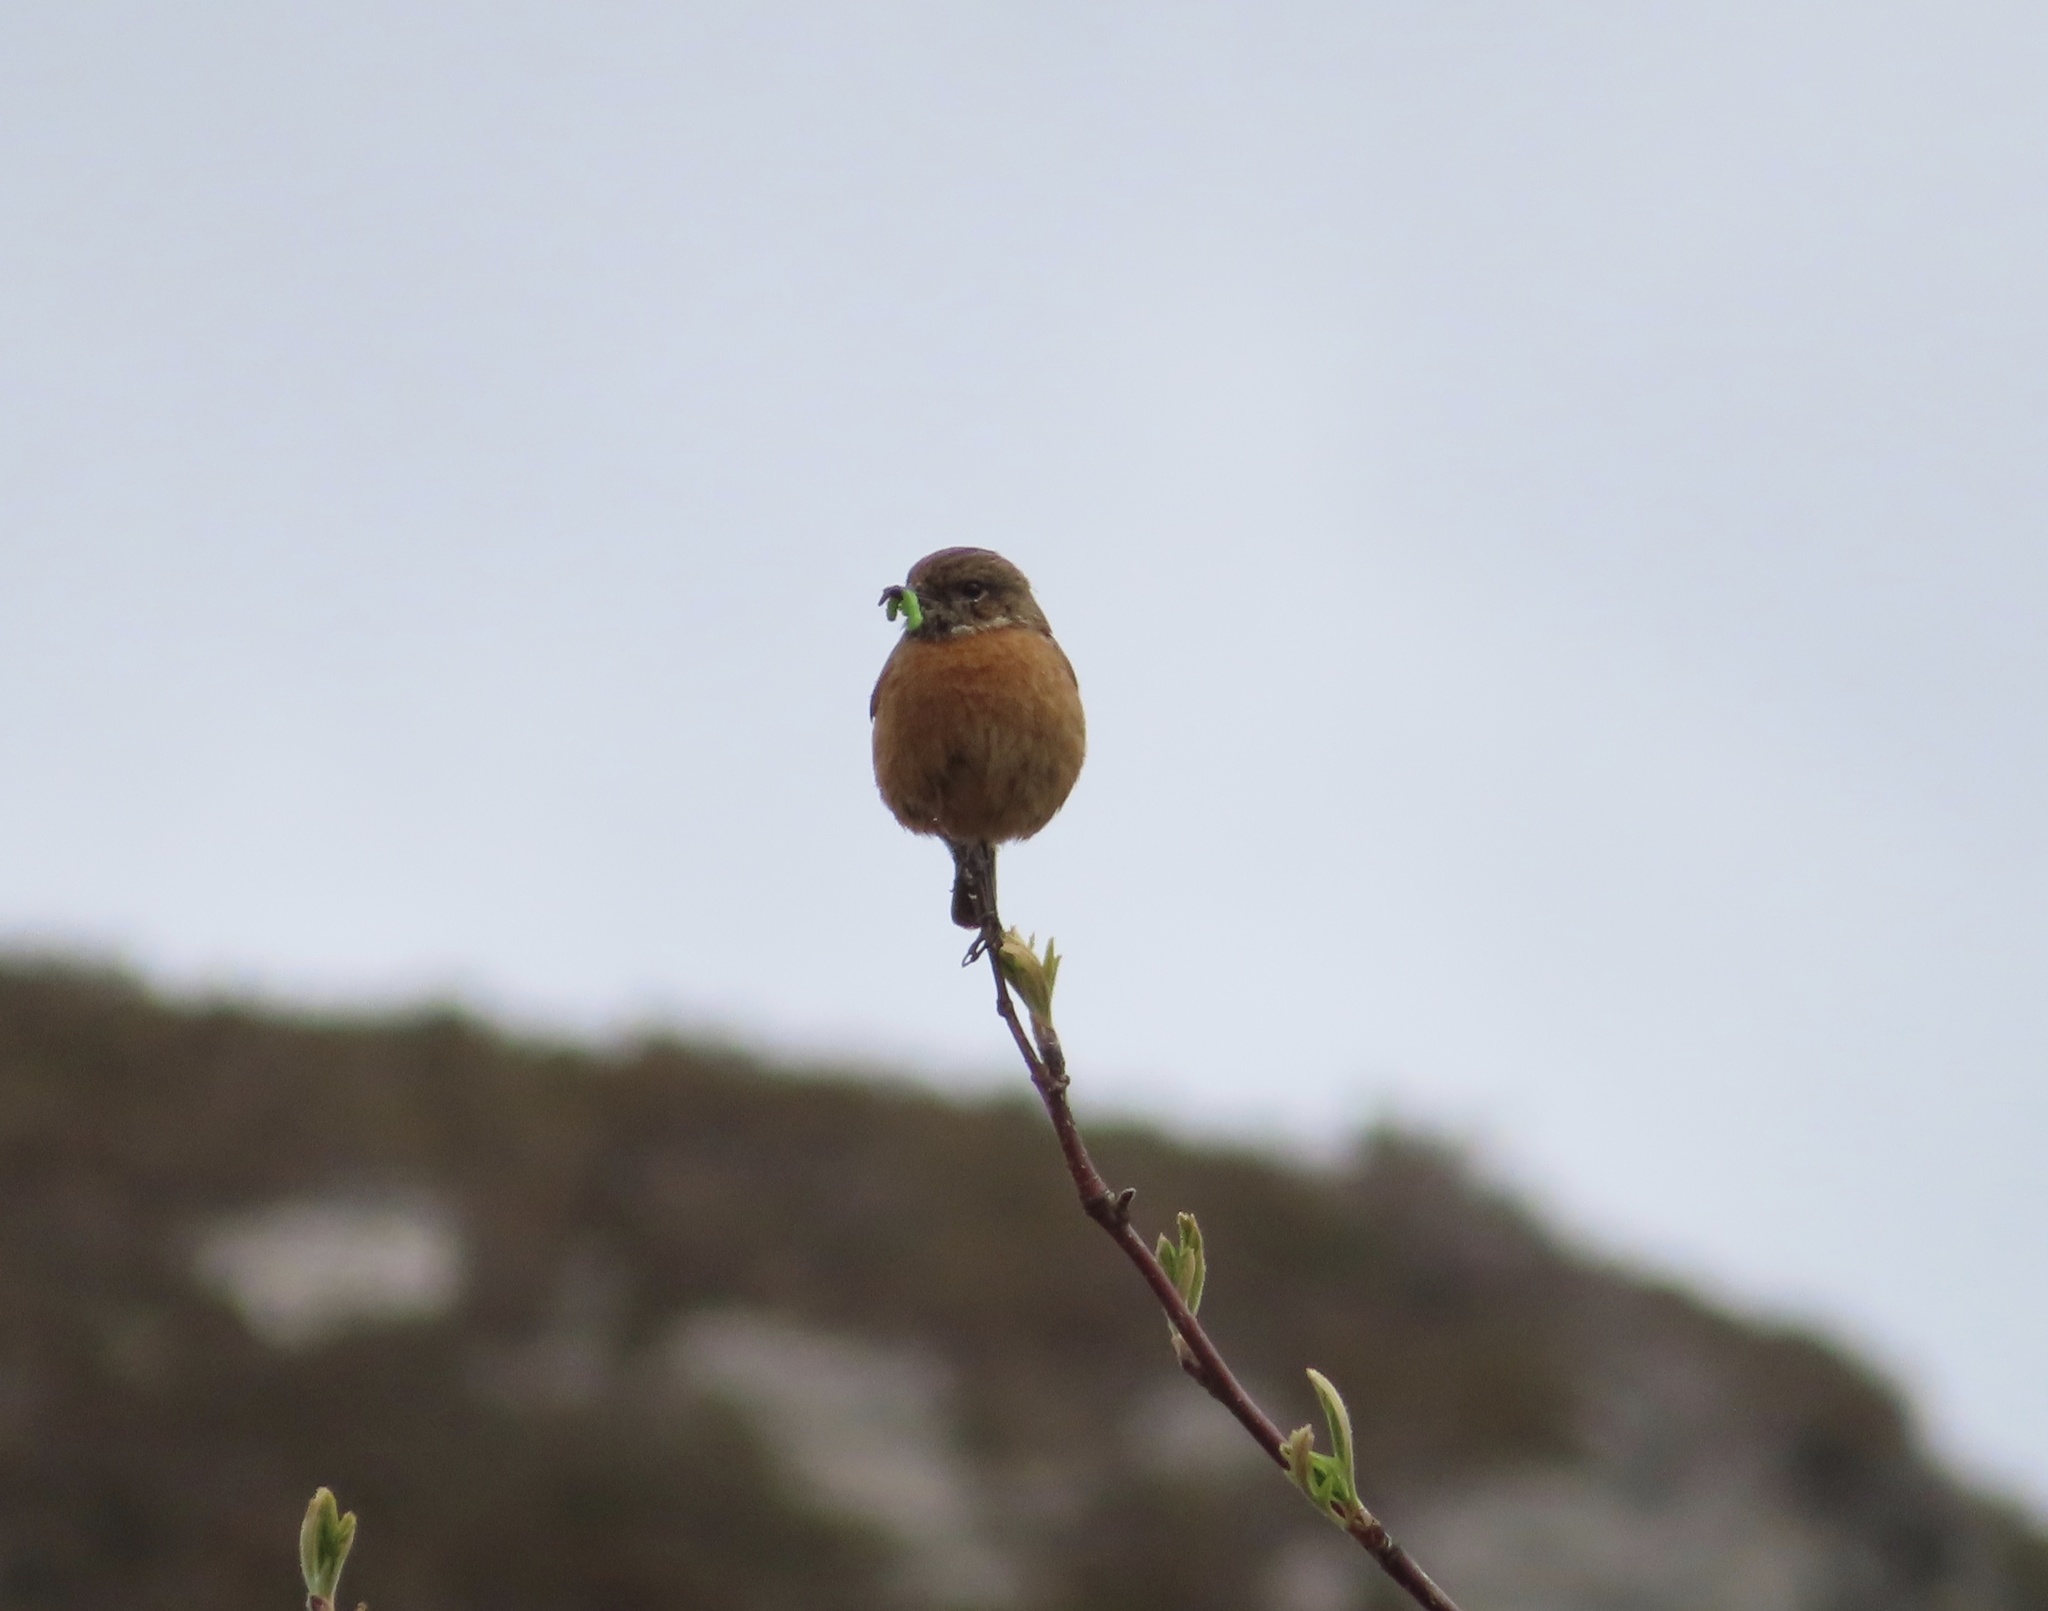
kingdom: Animalia
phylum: Chordata
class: Aves
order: Passeriformes
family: Muscicapidae
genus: Saxicola
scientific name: Saxicola rubicola
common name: European stonechat
